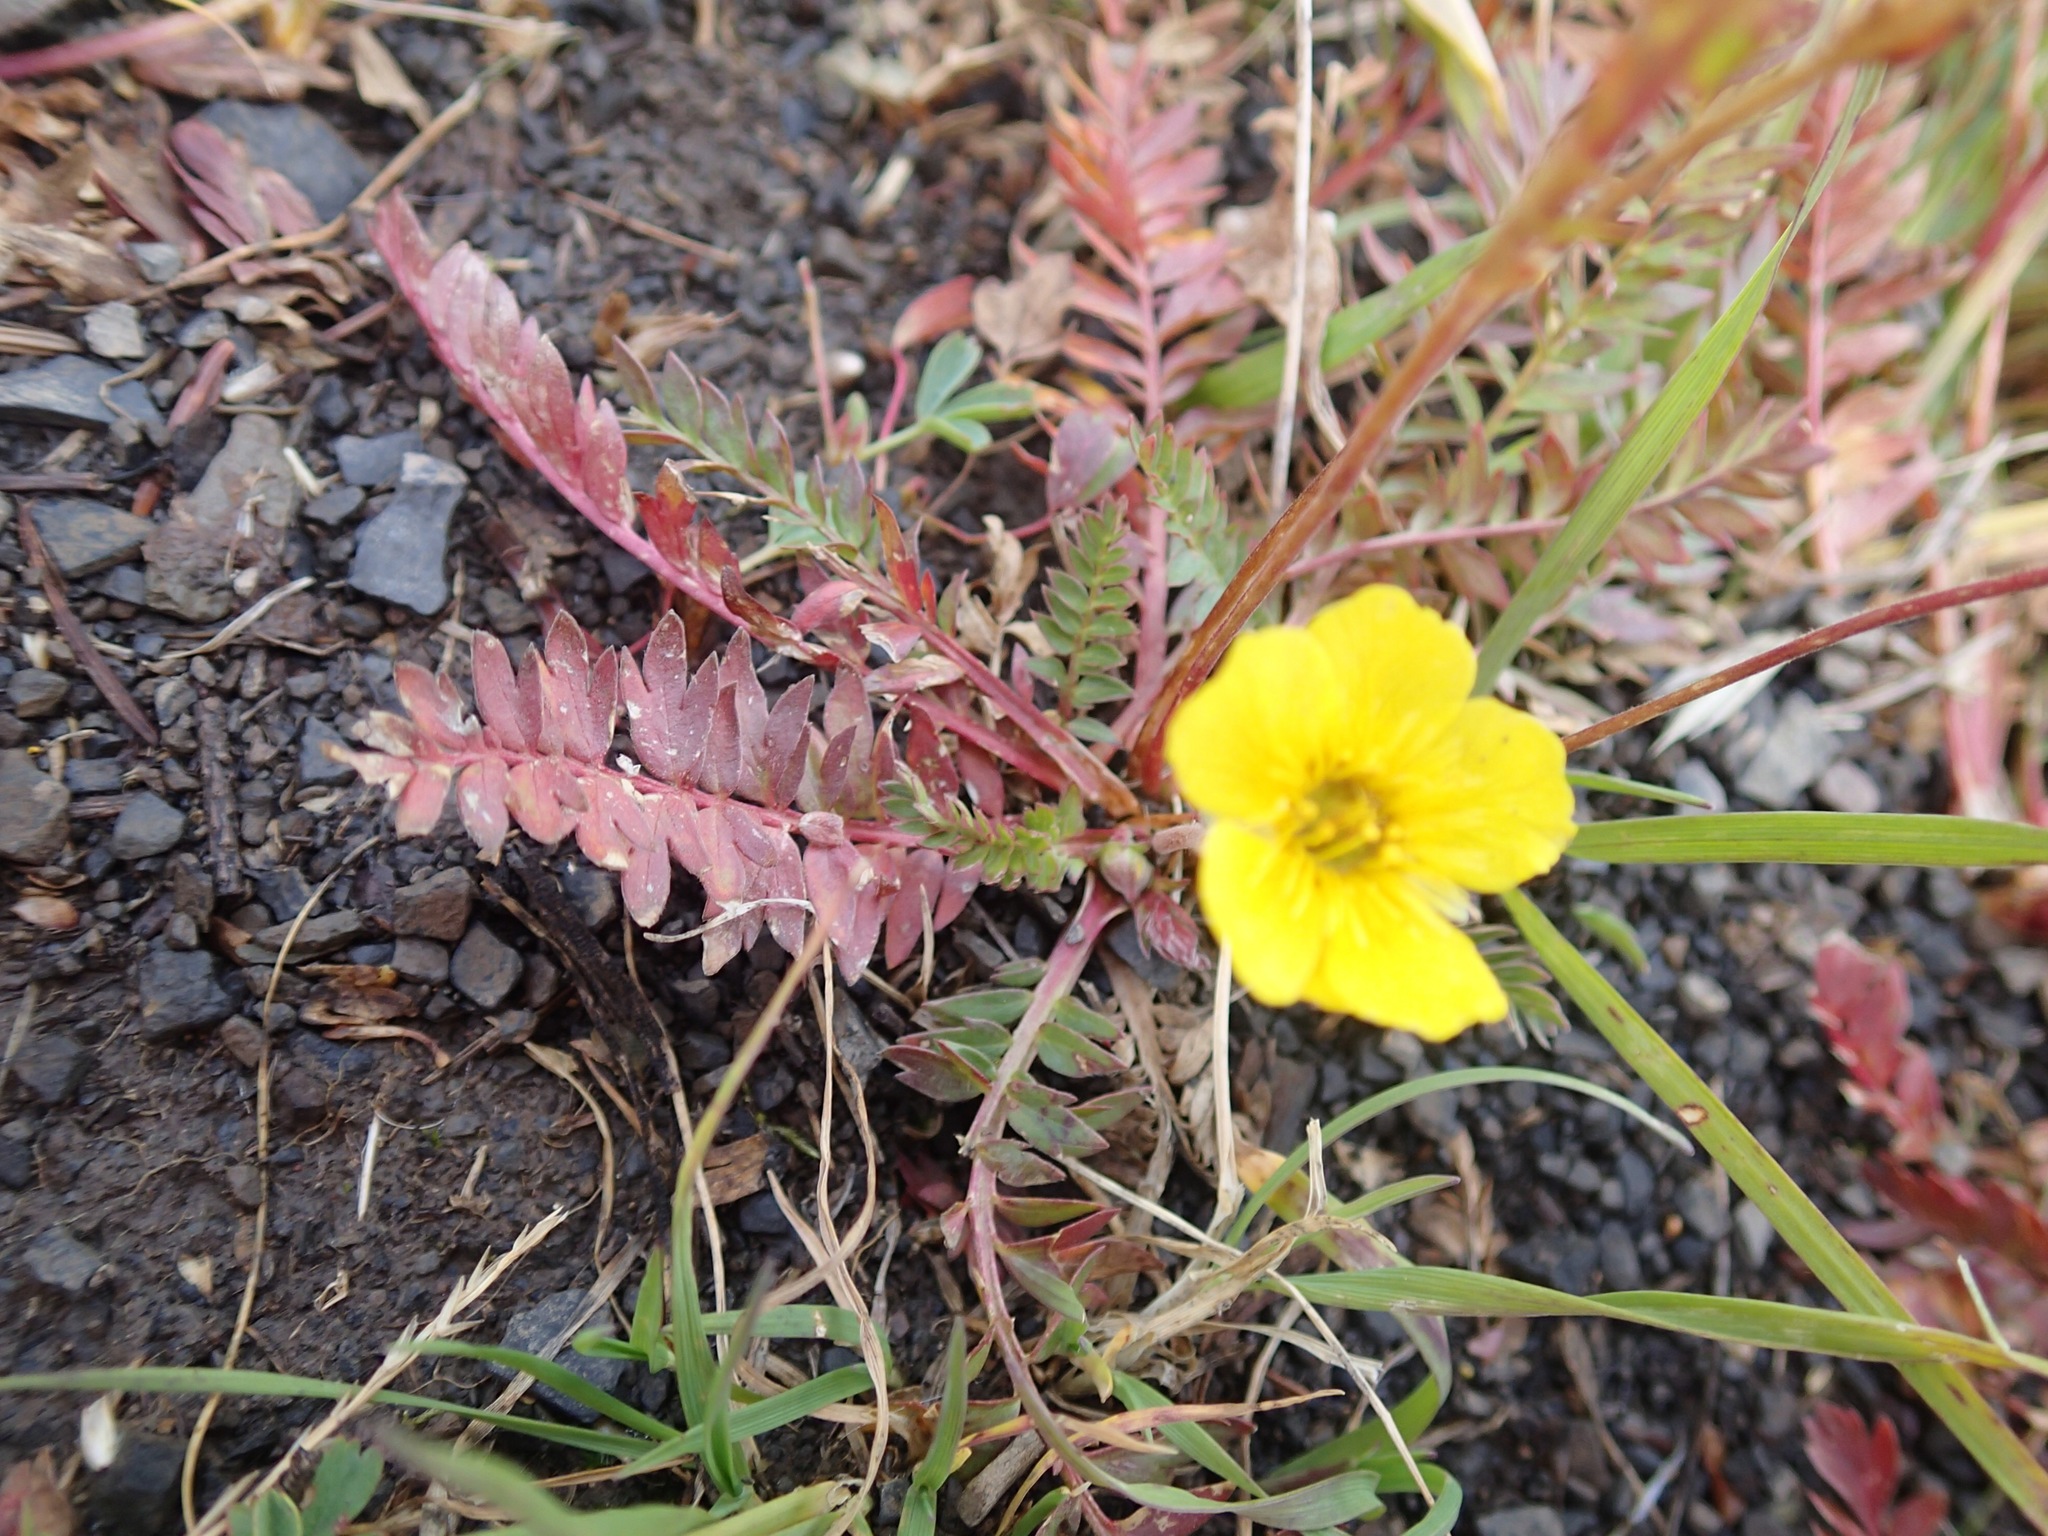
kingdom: Plantae
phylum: Tracheophyta
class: Magnoliopsida
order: Rosales
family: Rosaceae
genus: Geum
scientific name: Geum rossii
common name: Alpine avens
